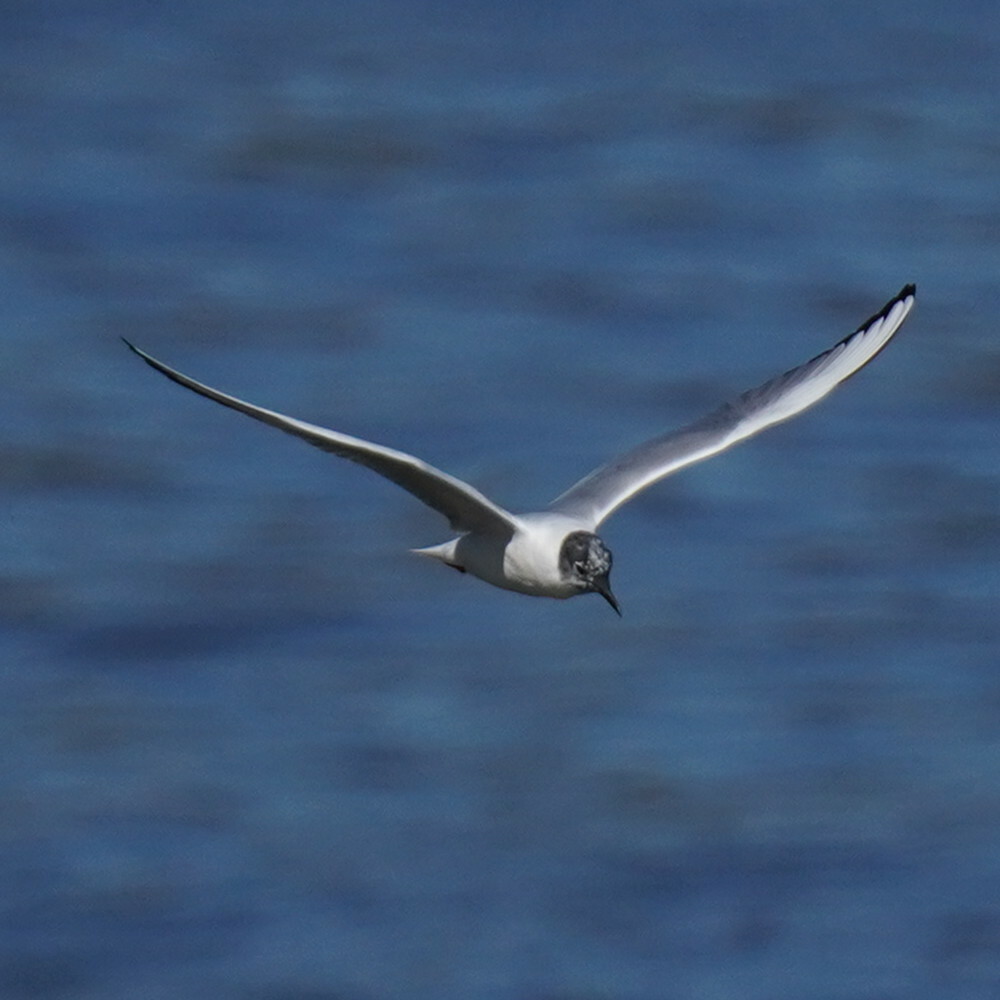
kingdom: Animalia
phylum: Chordata
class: Aves
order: Charadriiformes
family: Laridae
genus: Chroicocephalus
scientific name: Chroicocephalus philadelphia
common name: Bonaparte's gull
